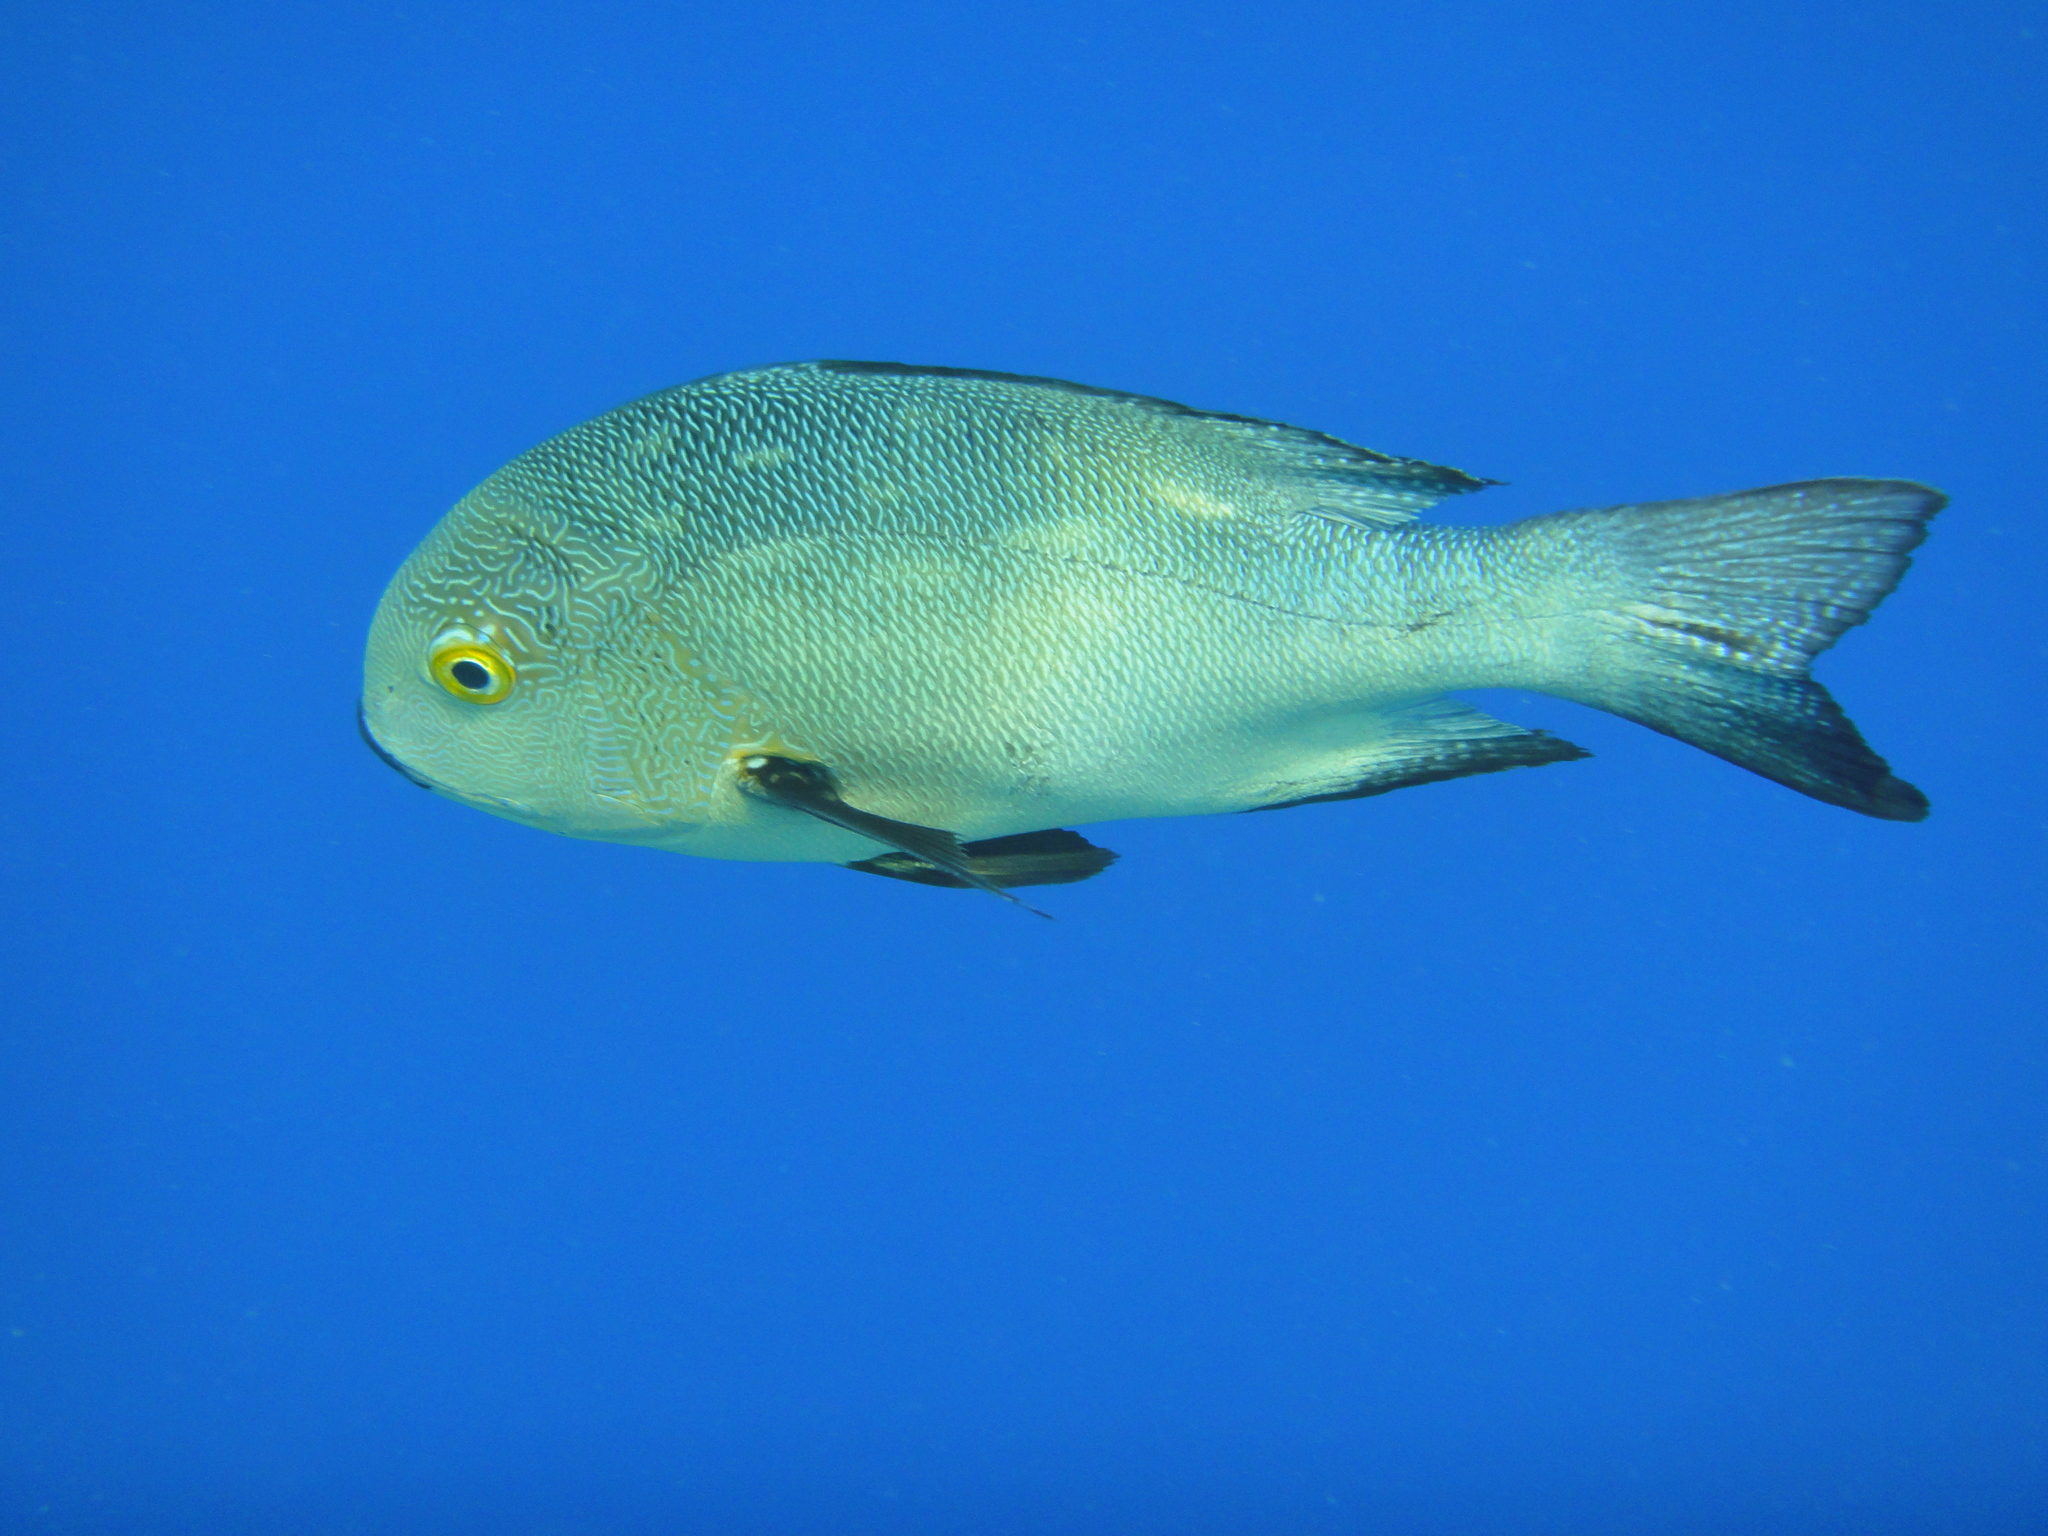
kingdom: Animalia
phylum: Chordata
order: Perciformes
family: Lutjanidae
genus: Macolor
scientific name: Macolor macularis
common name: Midnight snapper
